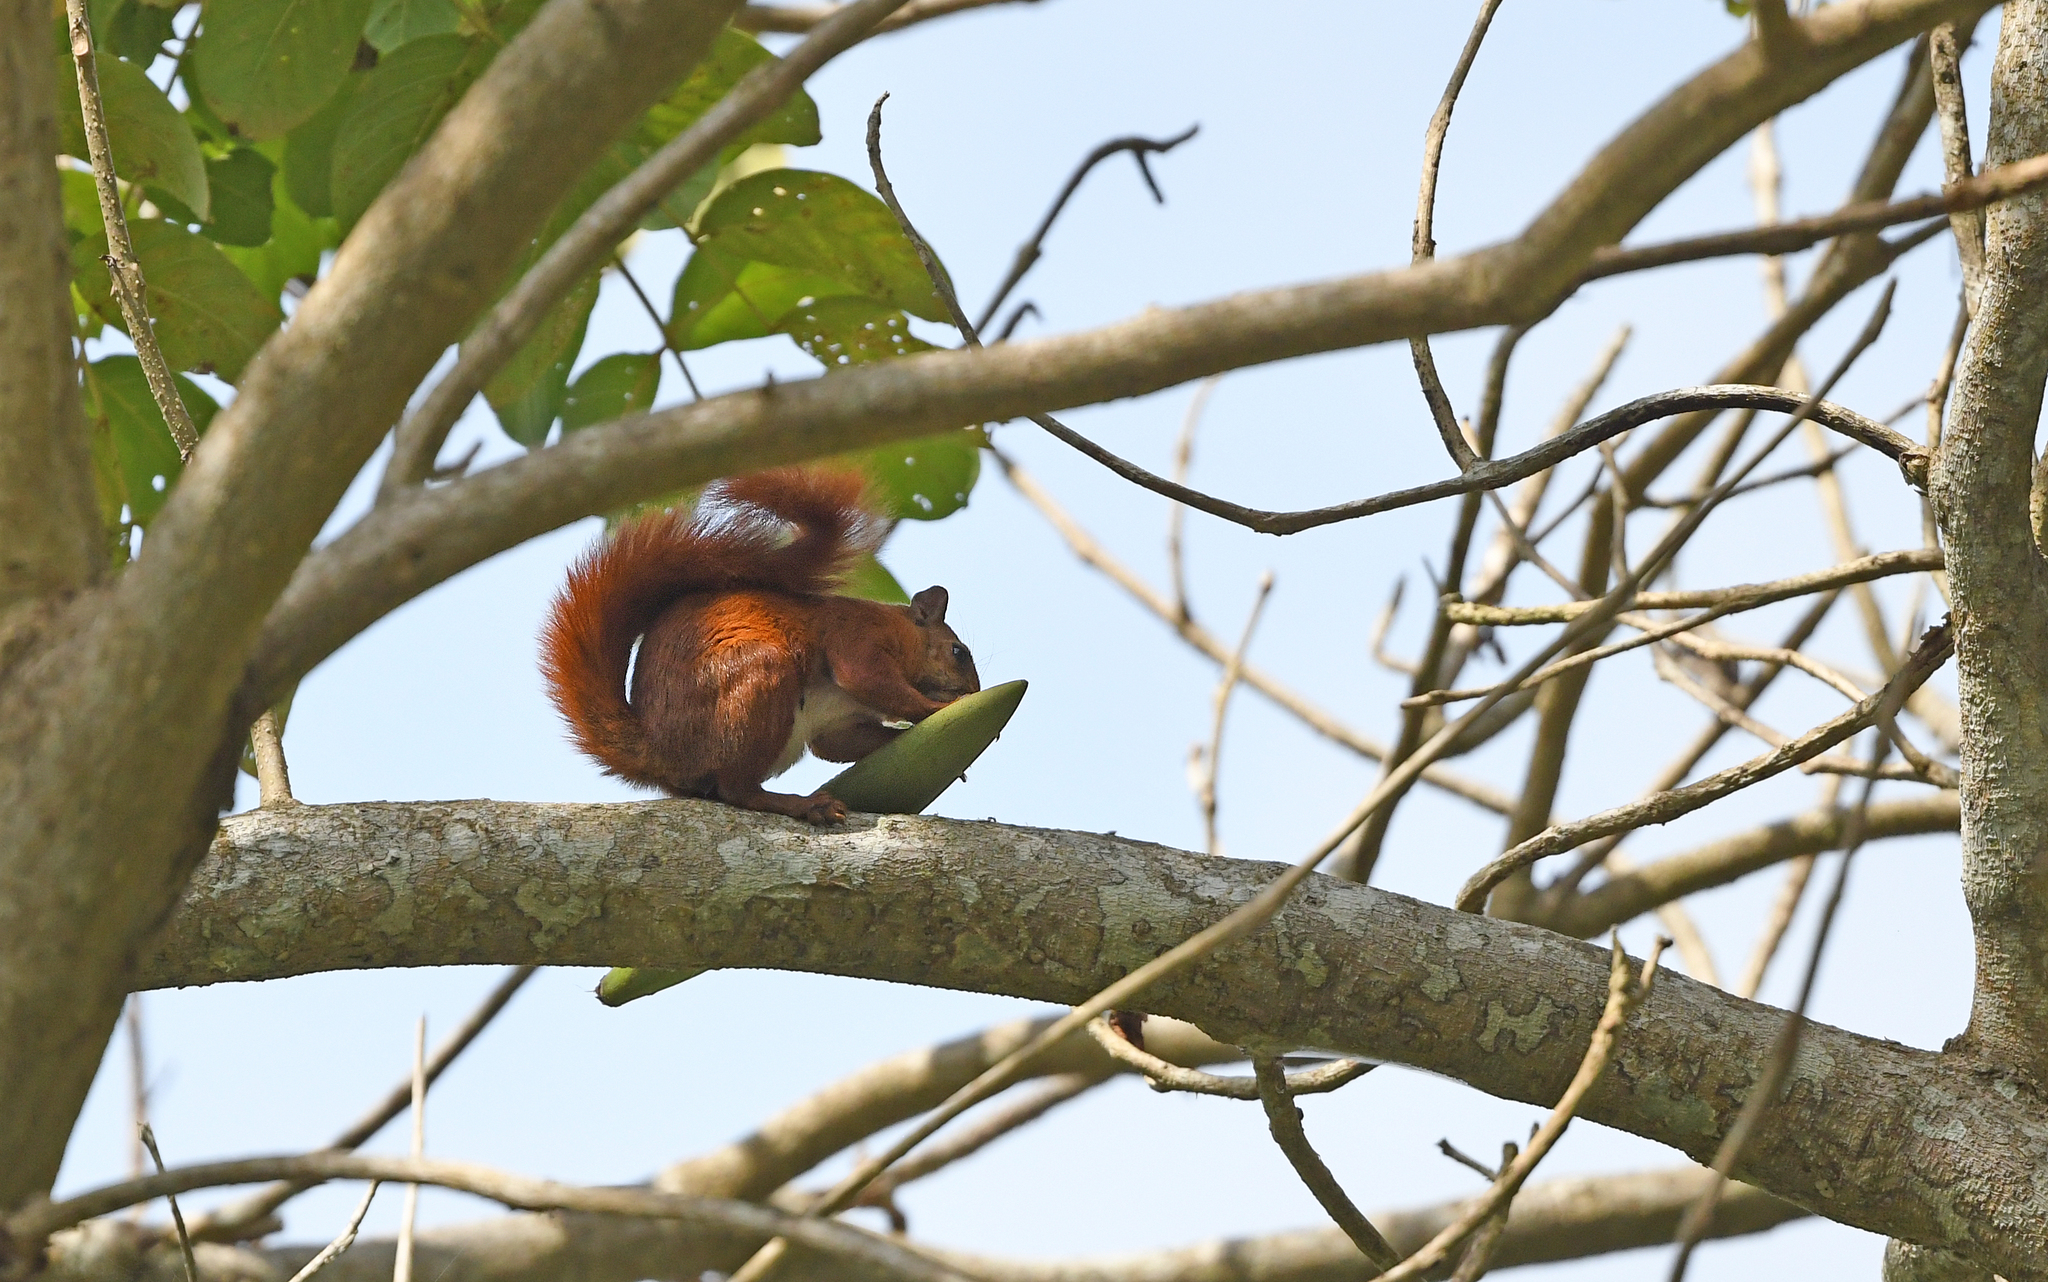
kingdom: Animalia
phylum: Chordata
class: Mammalia
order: Rodentia
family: Sciuridae
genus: Sciurus
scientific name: Sciurus granatensis
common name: Red-tailed squirrel
